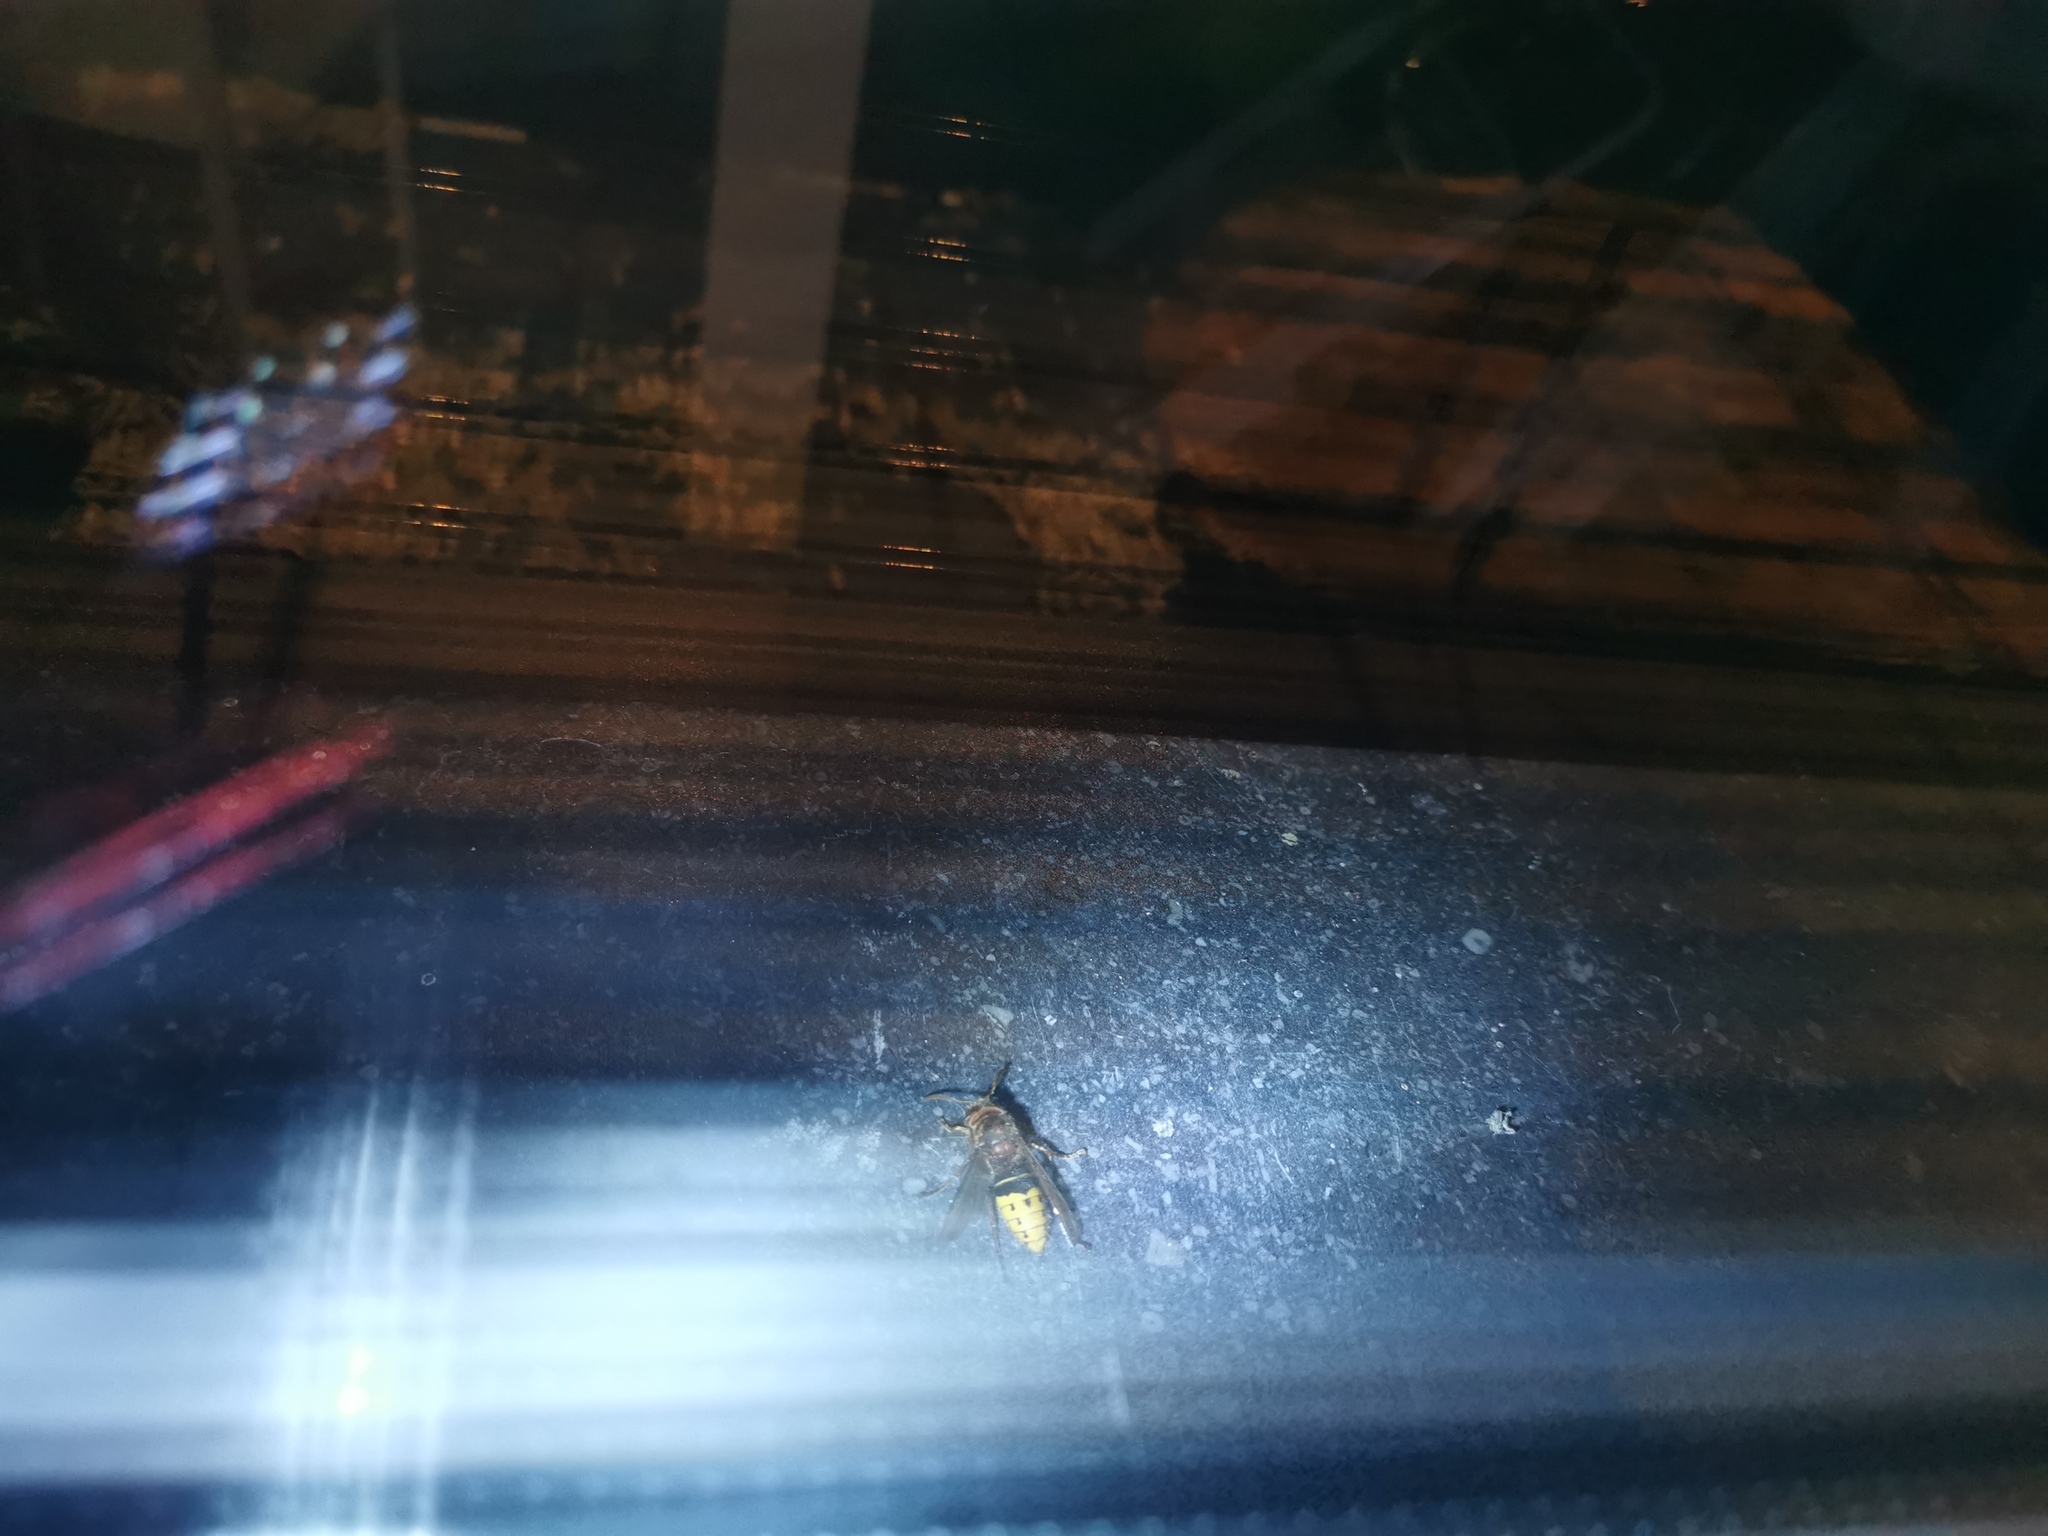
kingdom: Animalia
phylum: Arthropoda
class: Insecta
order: Hymenoptera
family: Vespidae
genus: Vespa
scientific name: Vespa crabro
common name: Hornet
